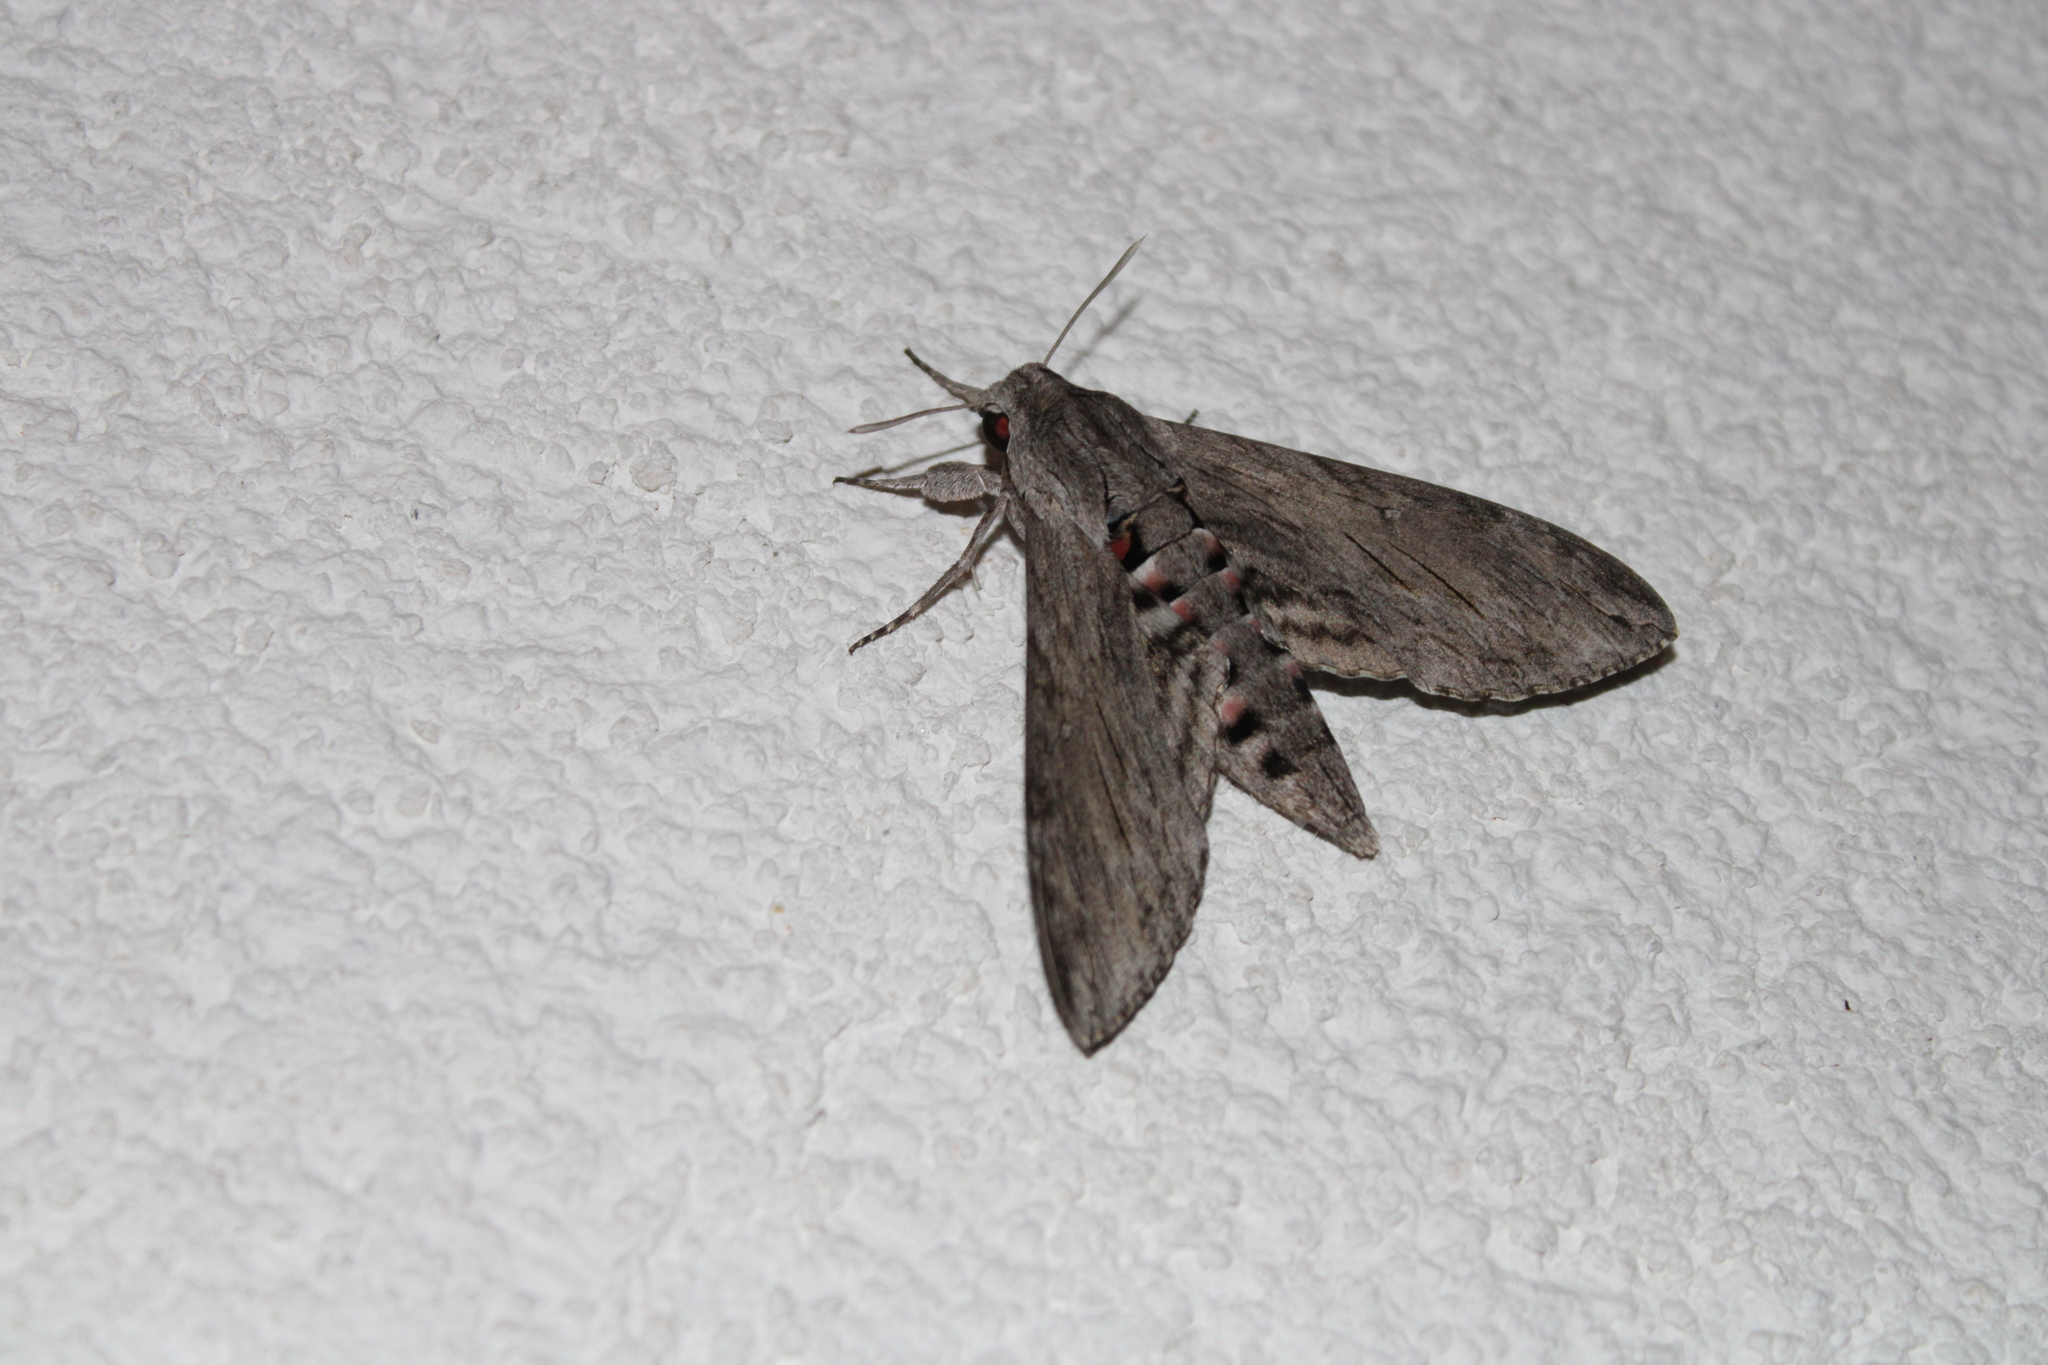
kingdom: Animalia
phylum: Arthropoda
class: Insecta
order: Lepidoptera
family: Sphingidae
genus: Agrius
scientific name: Agrius convolvuli
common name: Convolvulus hawkmoth
